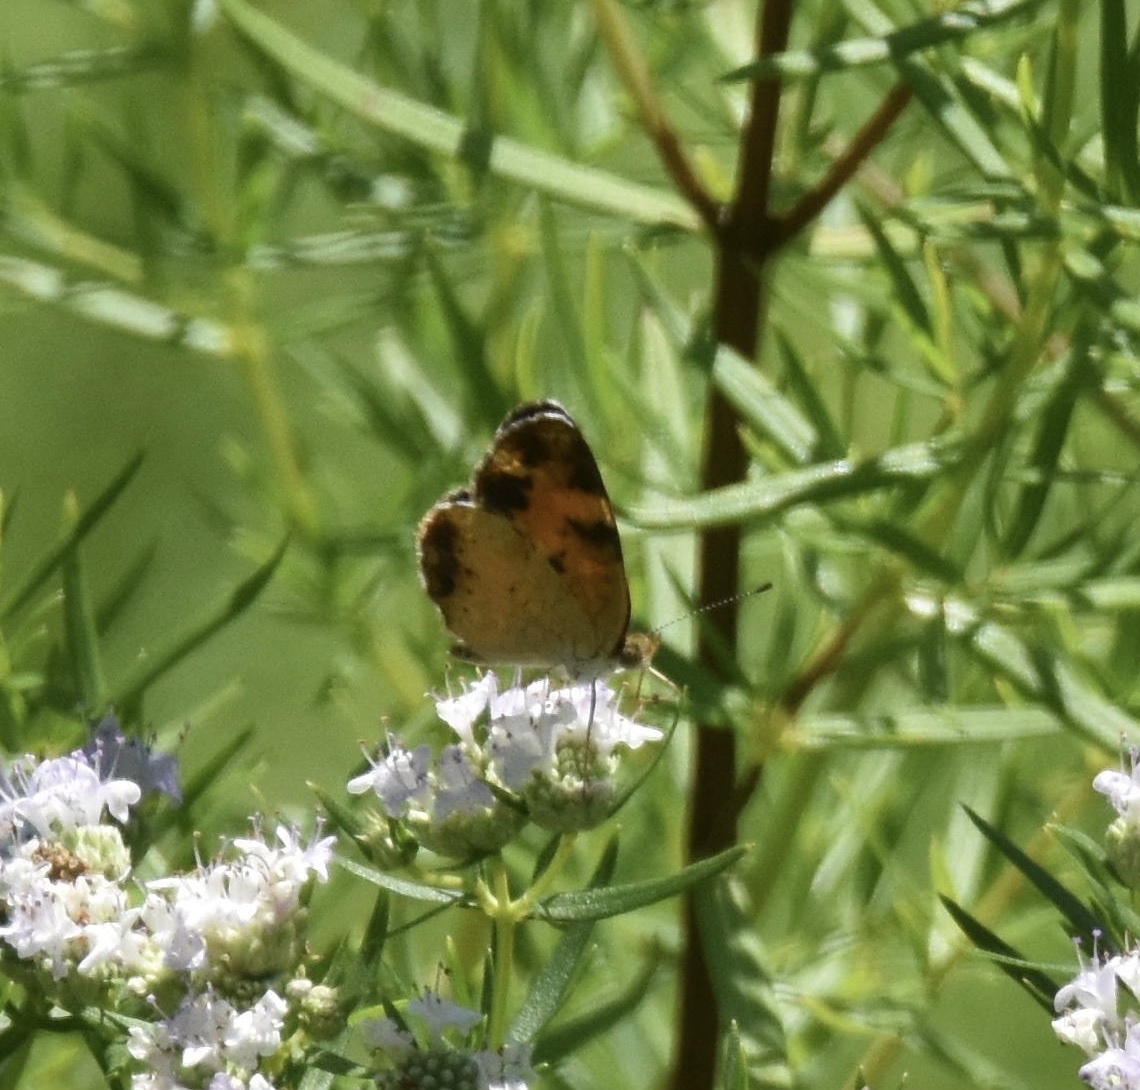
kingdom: Animalia
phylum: Arthropoda
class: Insecta
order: Lepidoptera
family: Nymphalidae
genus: Phyciodes
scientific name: Phyciodes tharos
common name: Pearl crescent
